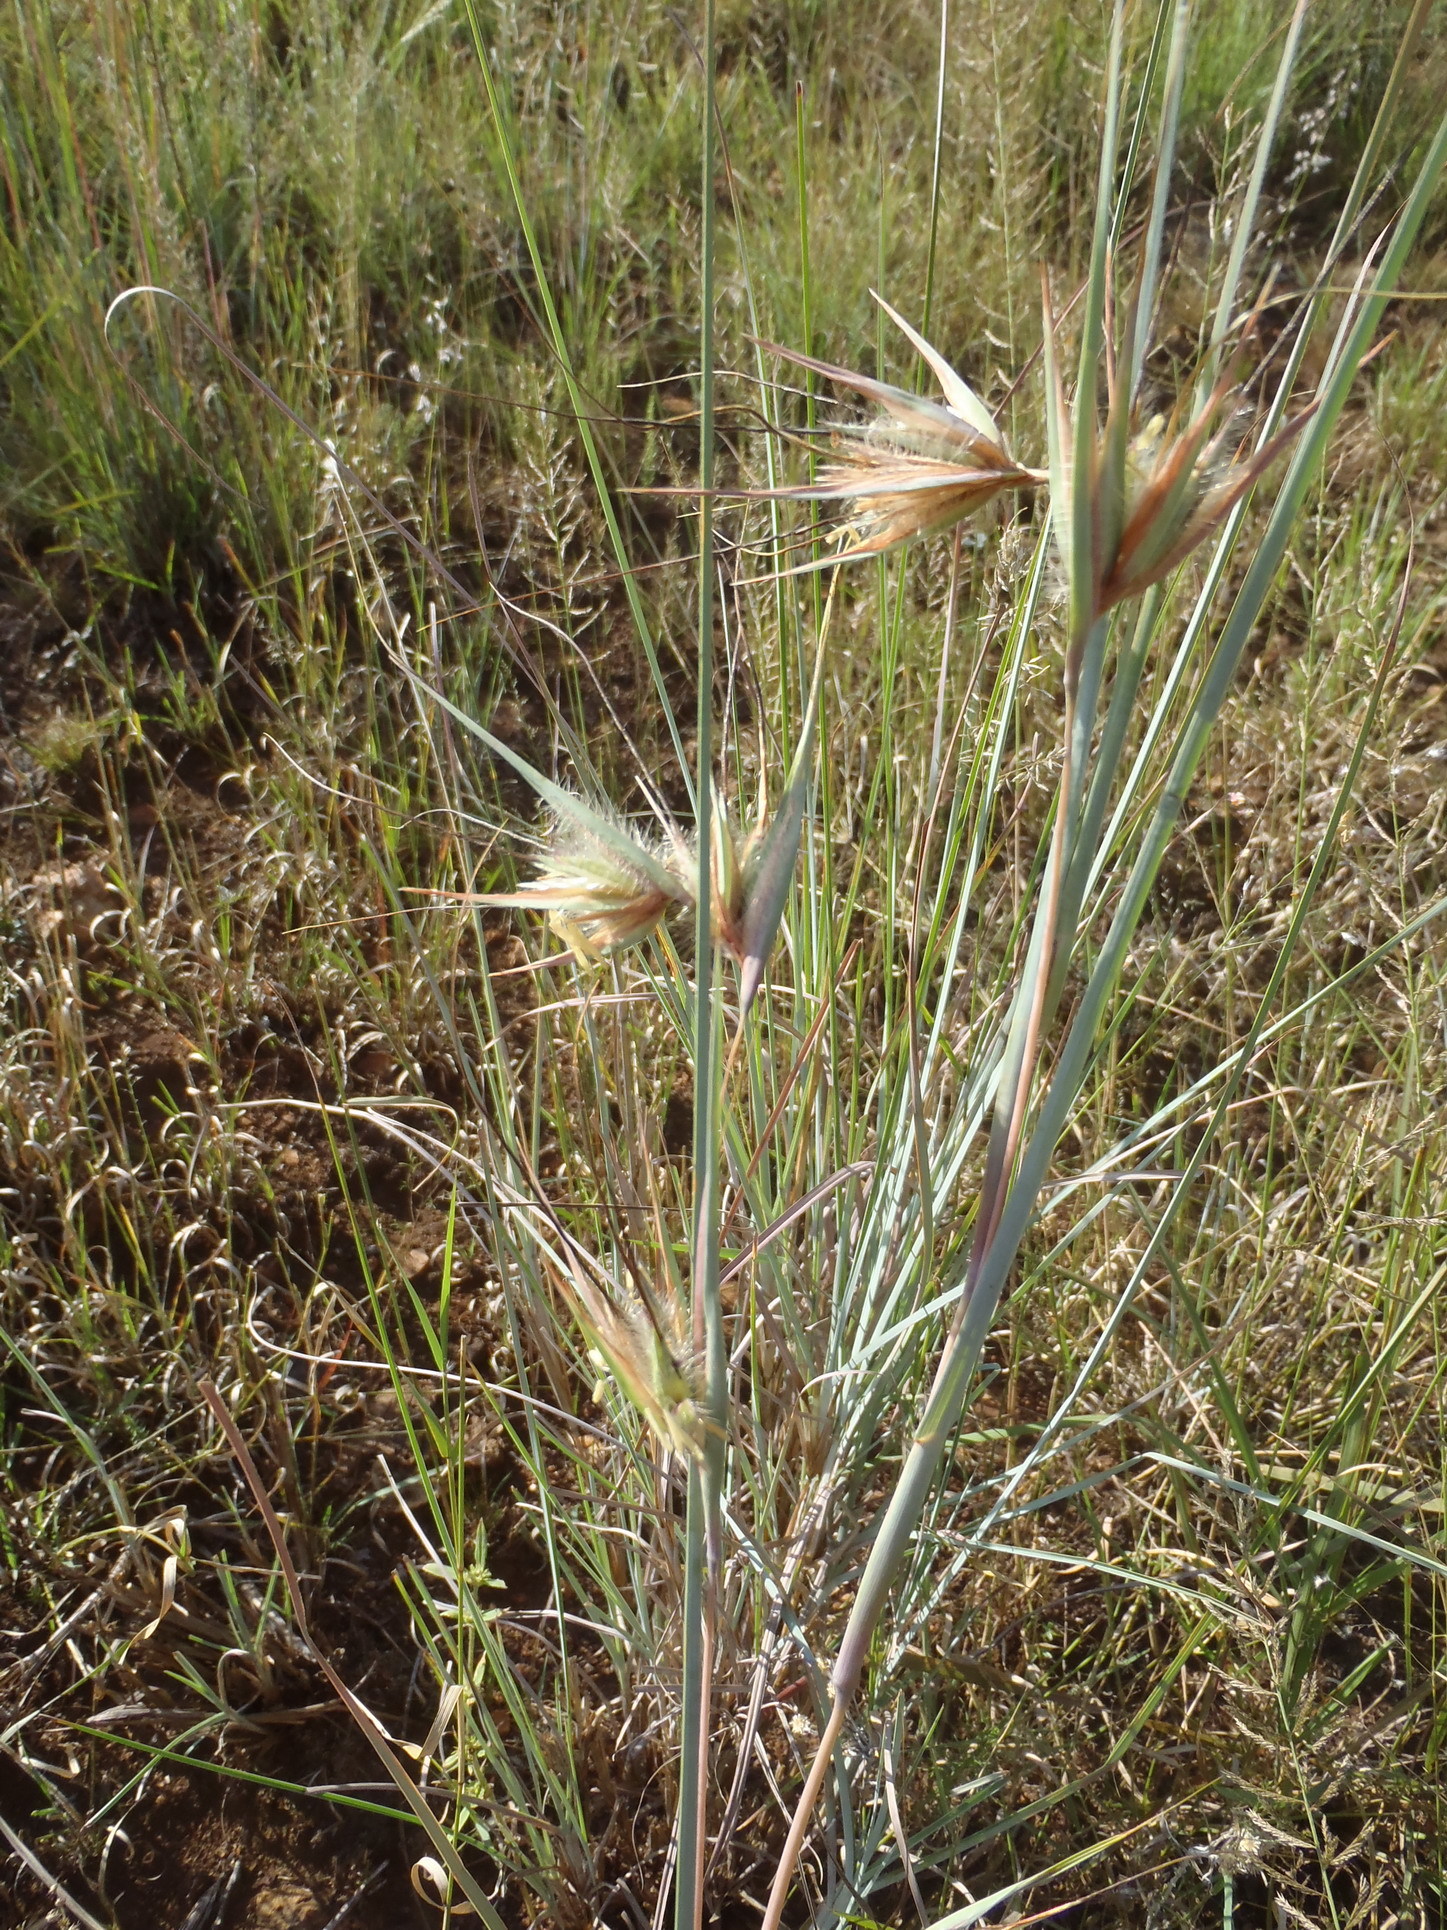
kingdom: Plantae
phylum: Tracheophyta
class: Liliopsida
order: Poales
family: Poaceae
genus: Themeda
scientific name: Themeda triandra
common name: Kangaroo grass
